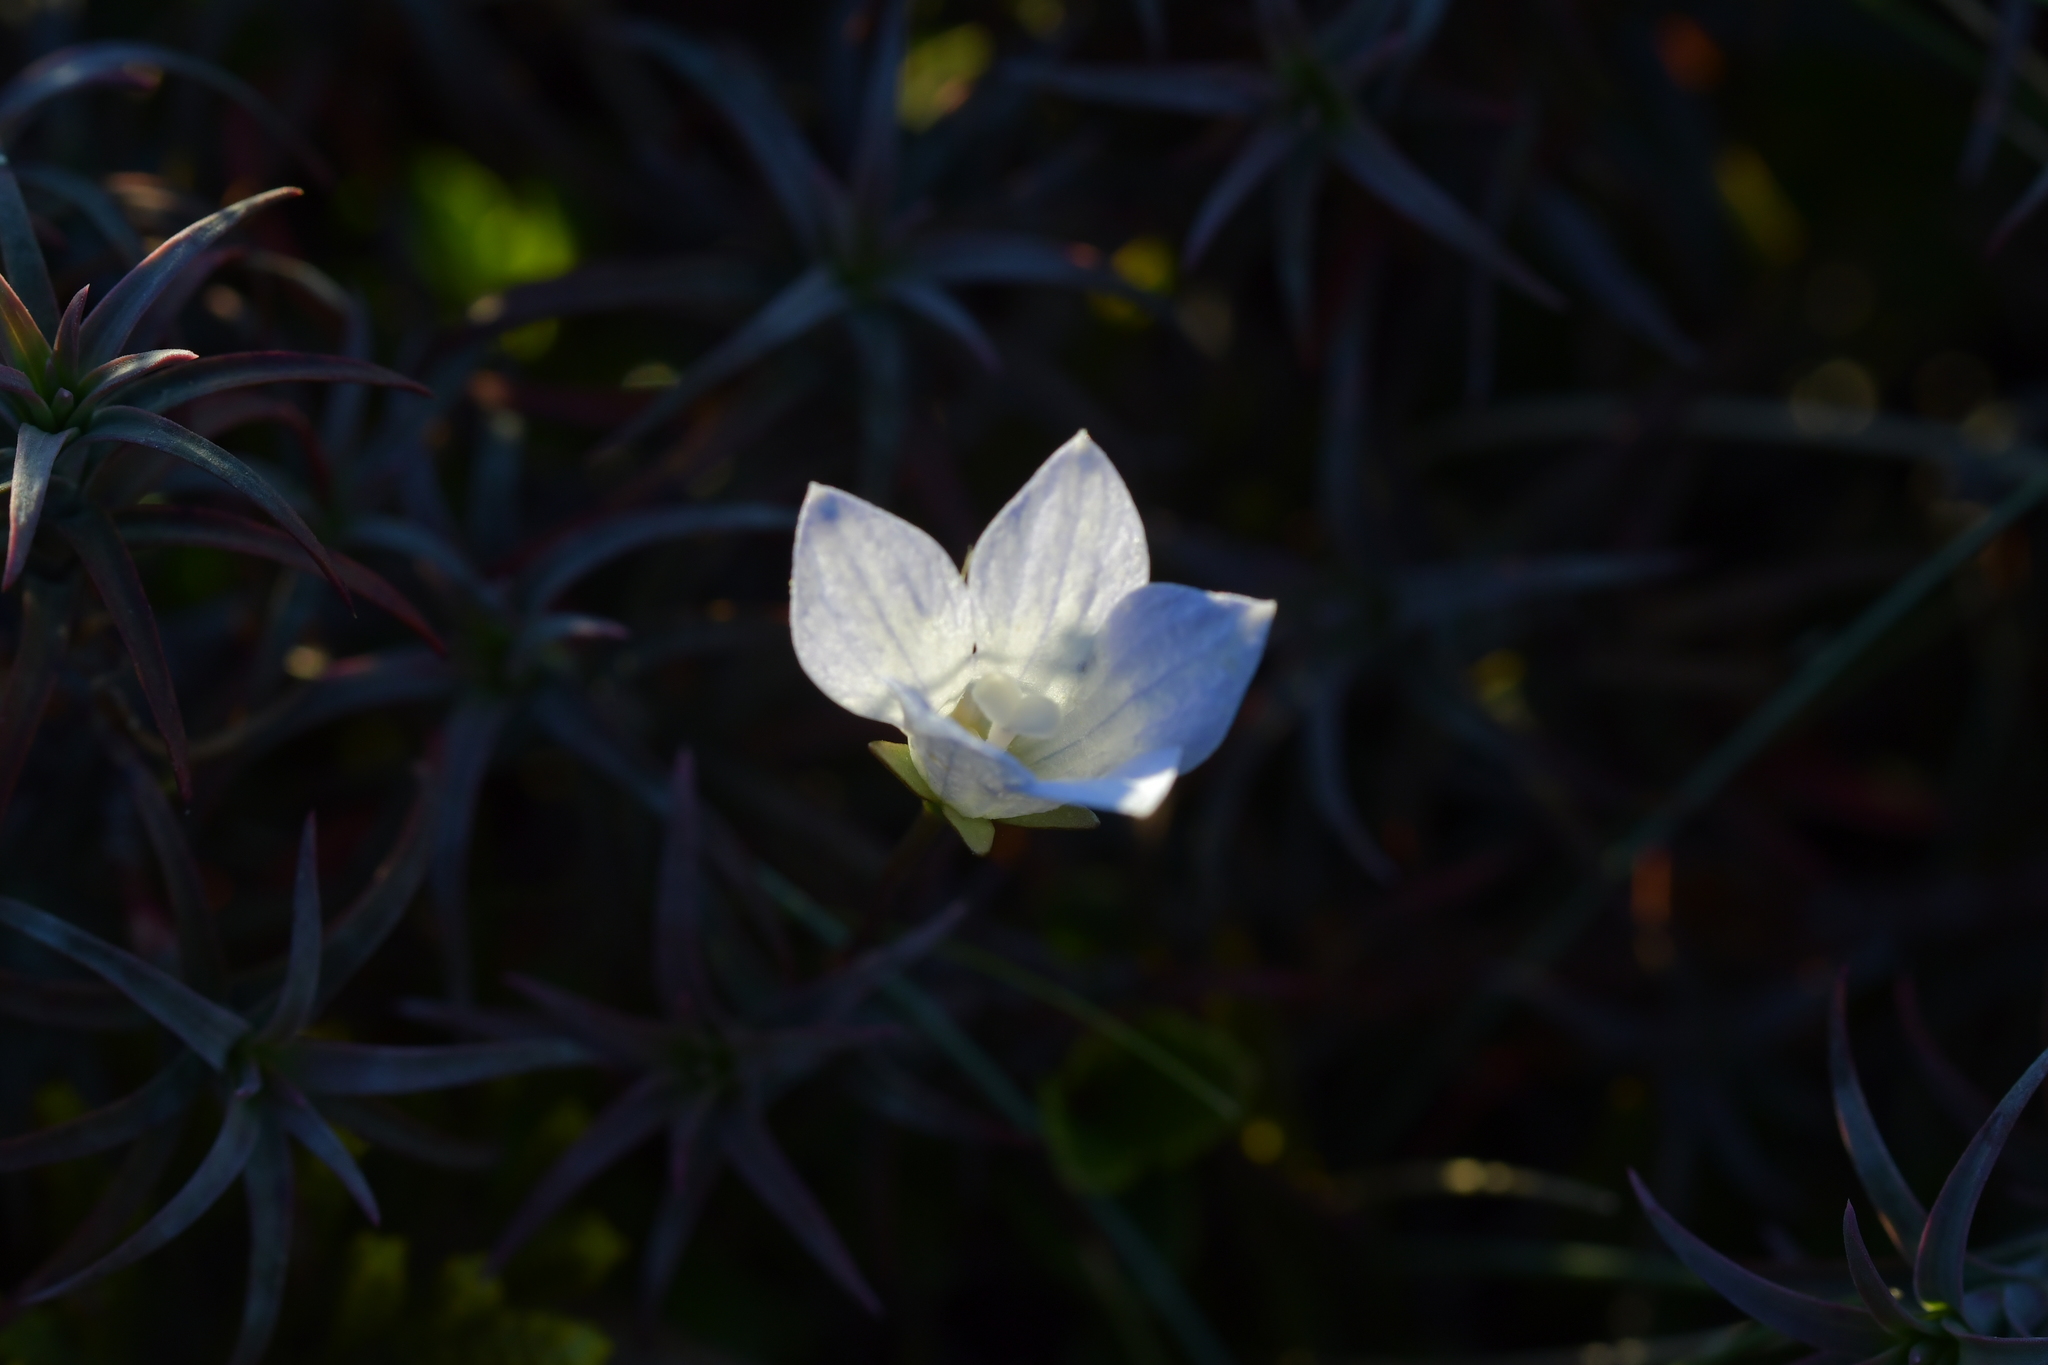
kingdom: Plantae
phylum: Tracheophyta
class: Magnoliopsida
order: Asterales
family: Campanulaceae
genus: Wahlenbergia
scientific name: Wahlenbergia pygmaea
